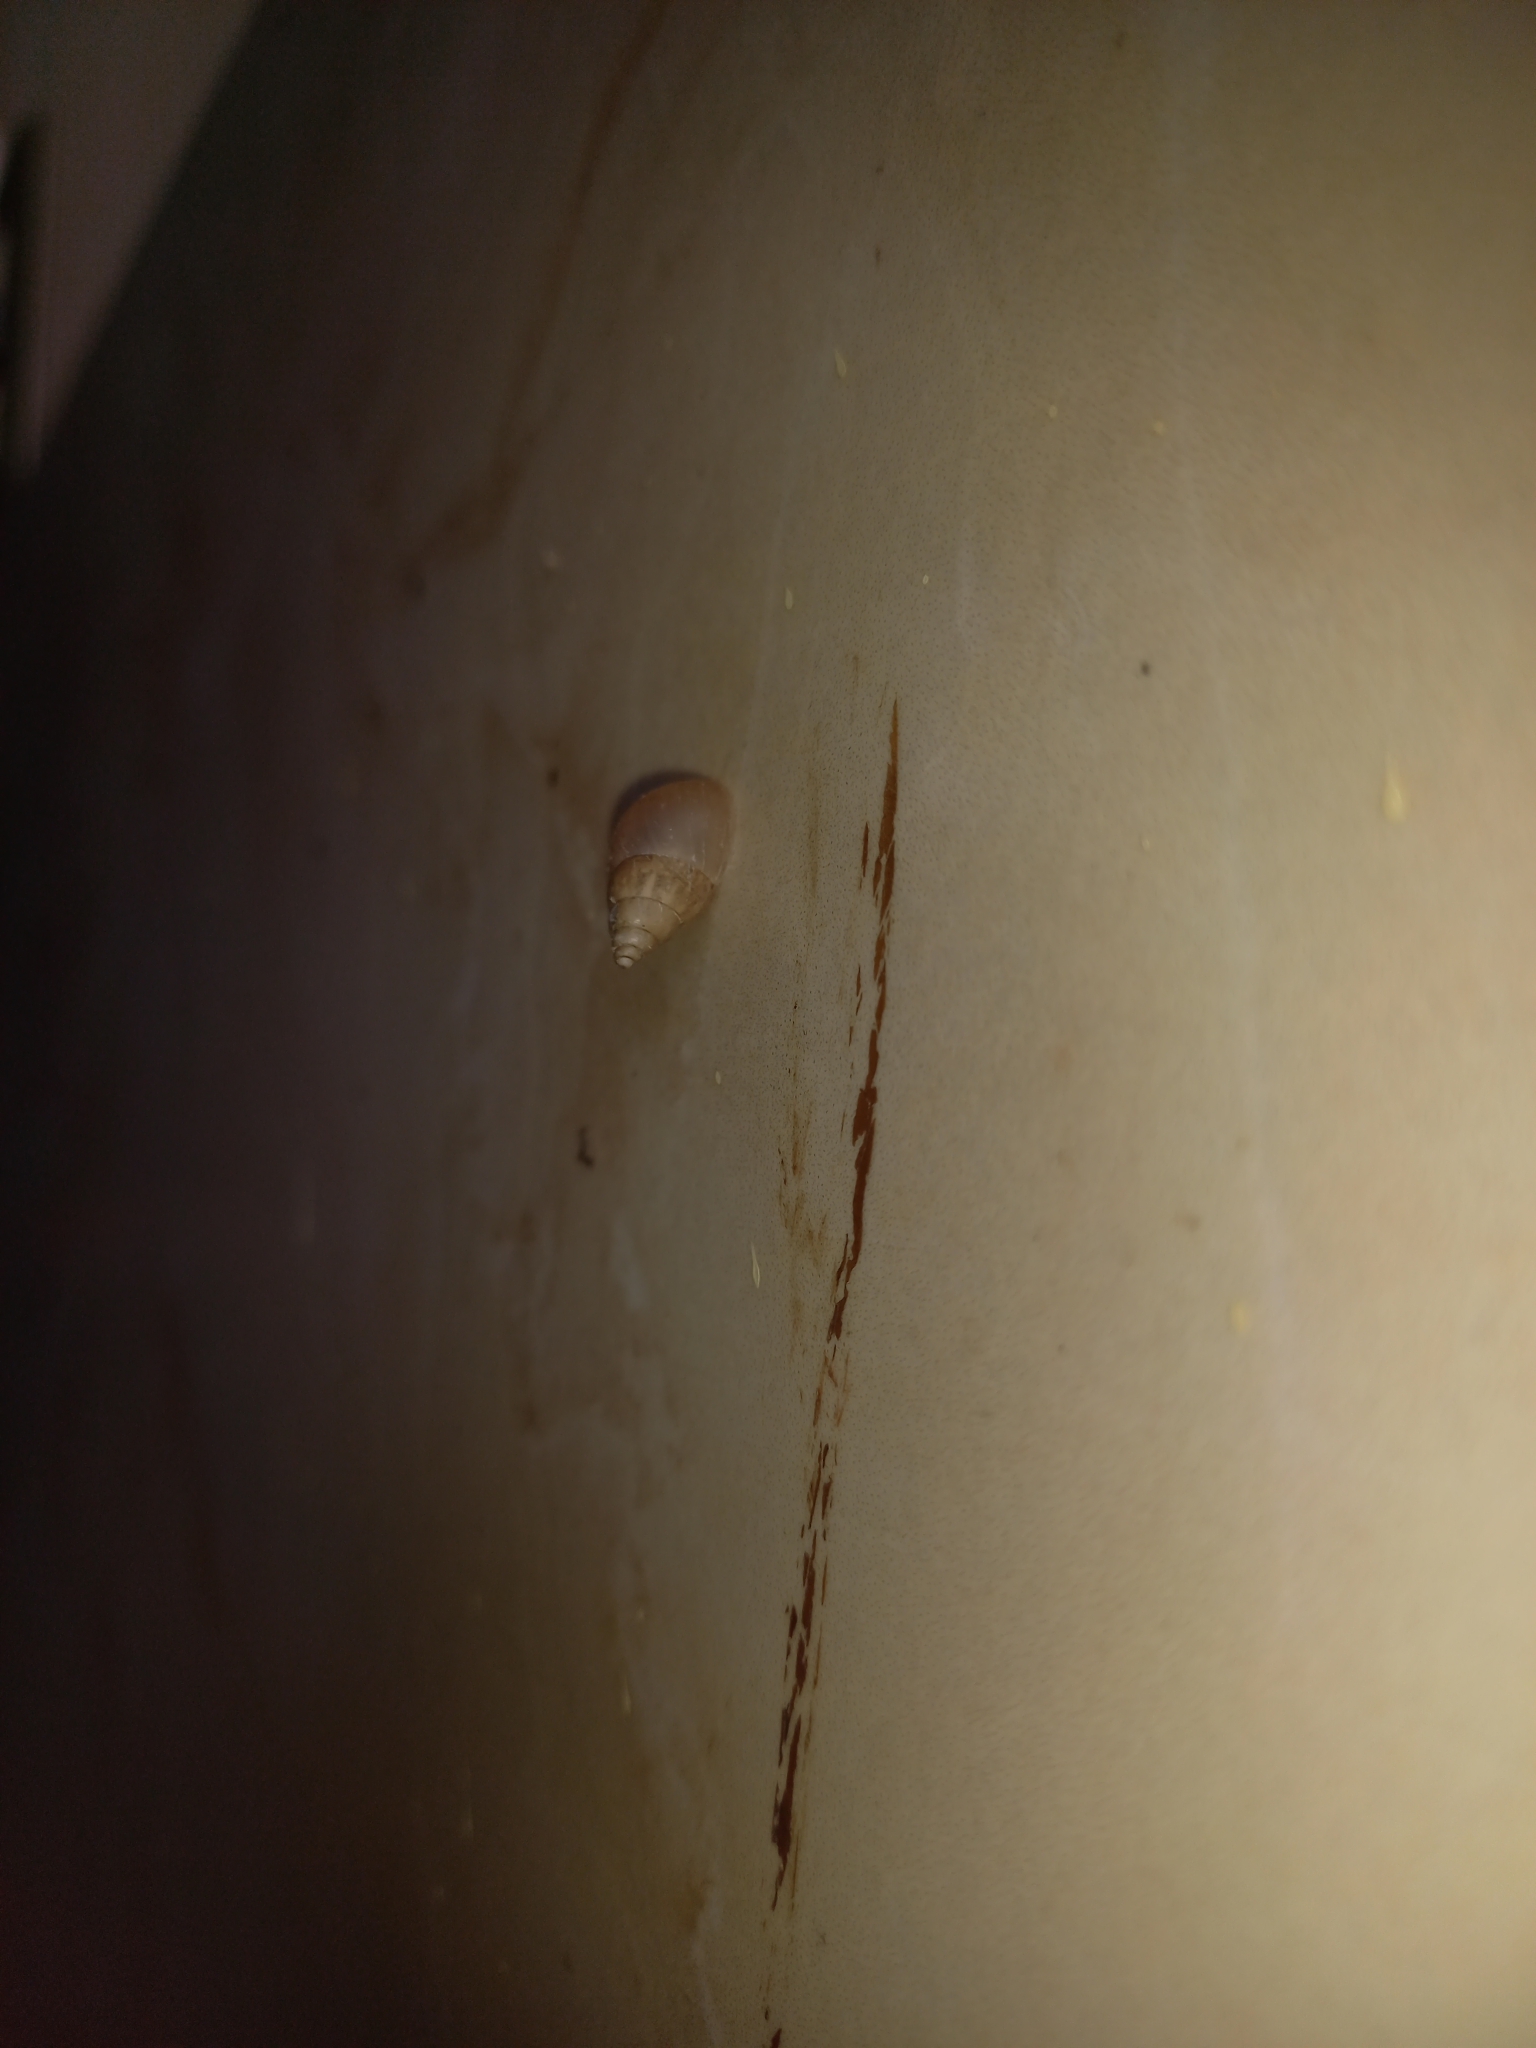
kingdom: Animalia
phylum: Mollusca
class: Gastropoda
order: Stylommatophora
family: Bulimulidae
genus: Bulimulus
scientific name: Bulimulus tenuissimus
